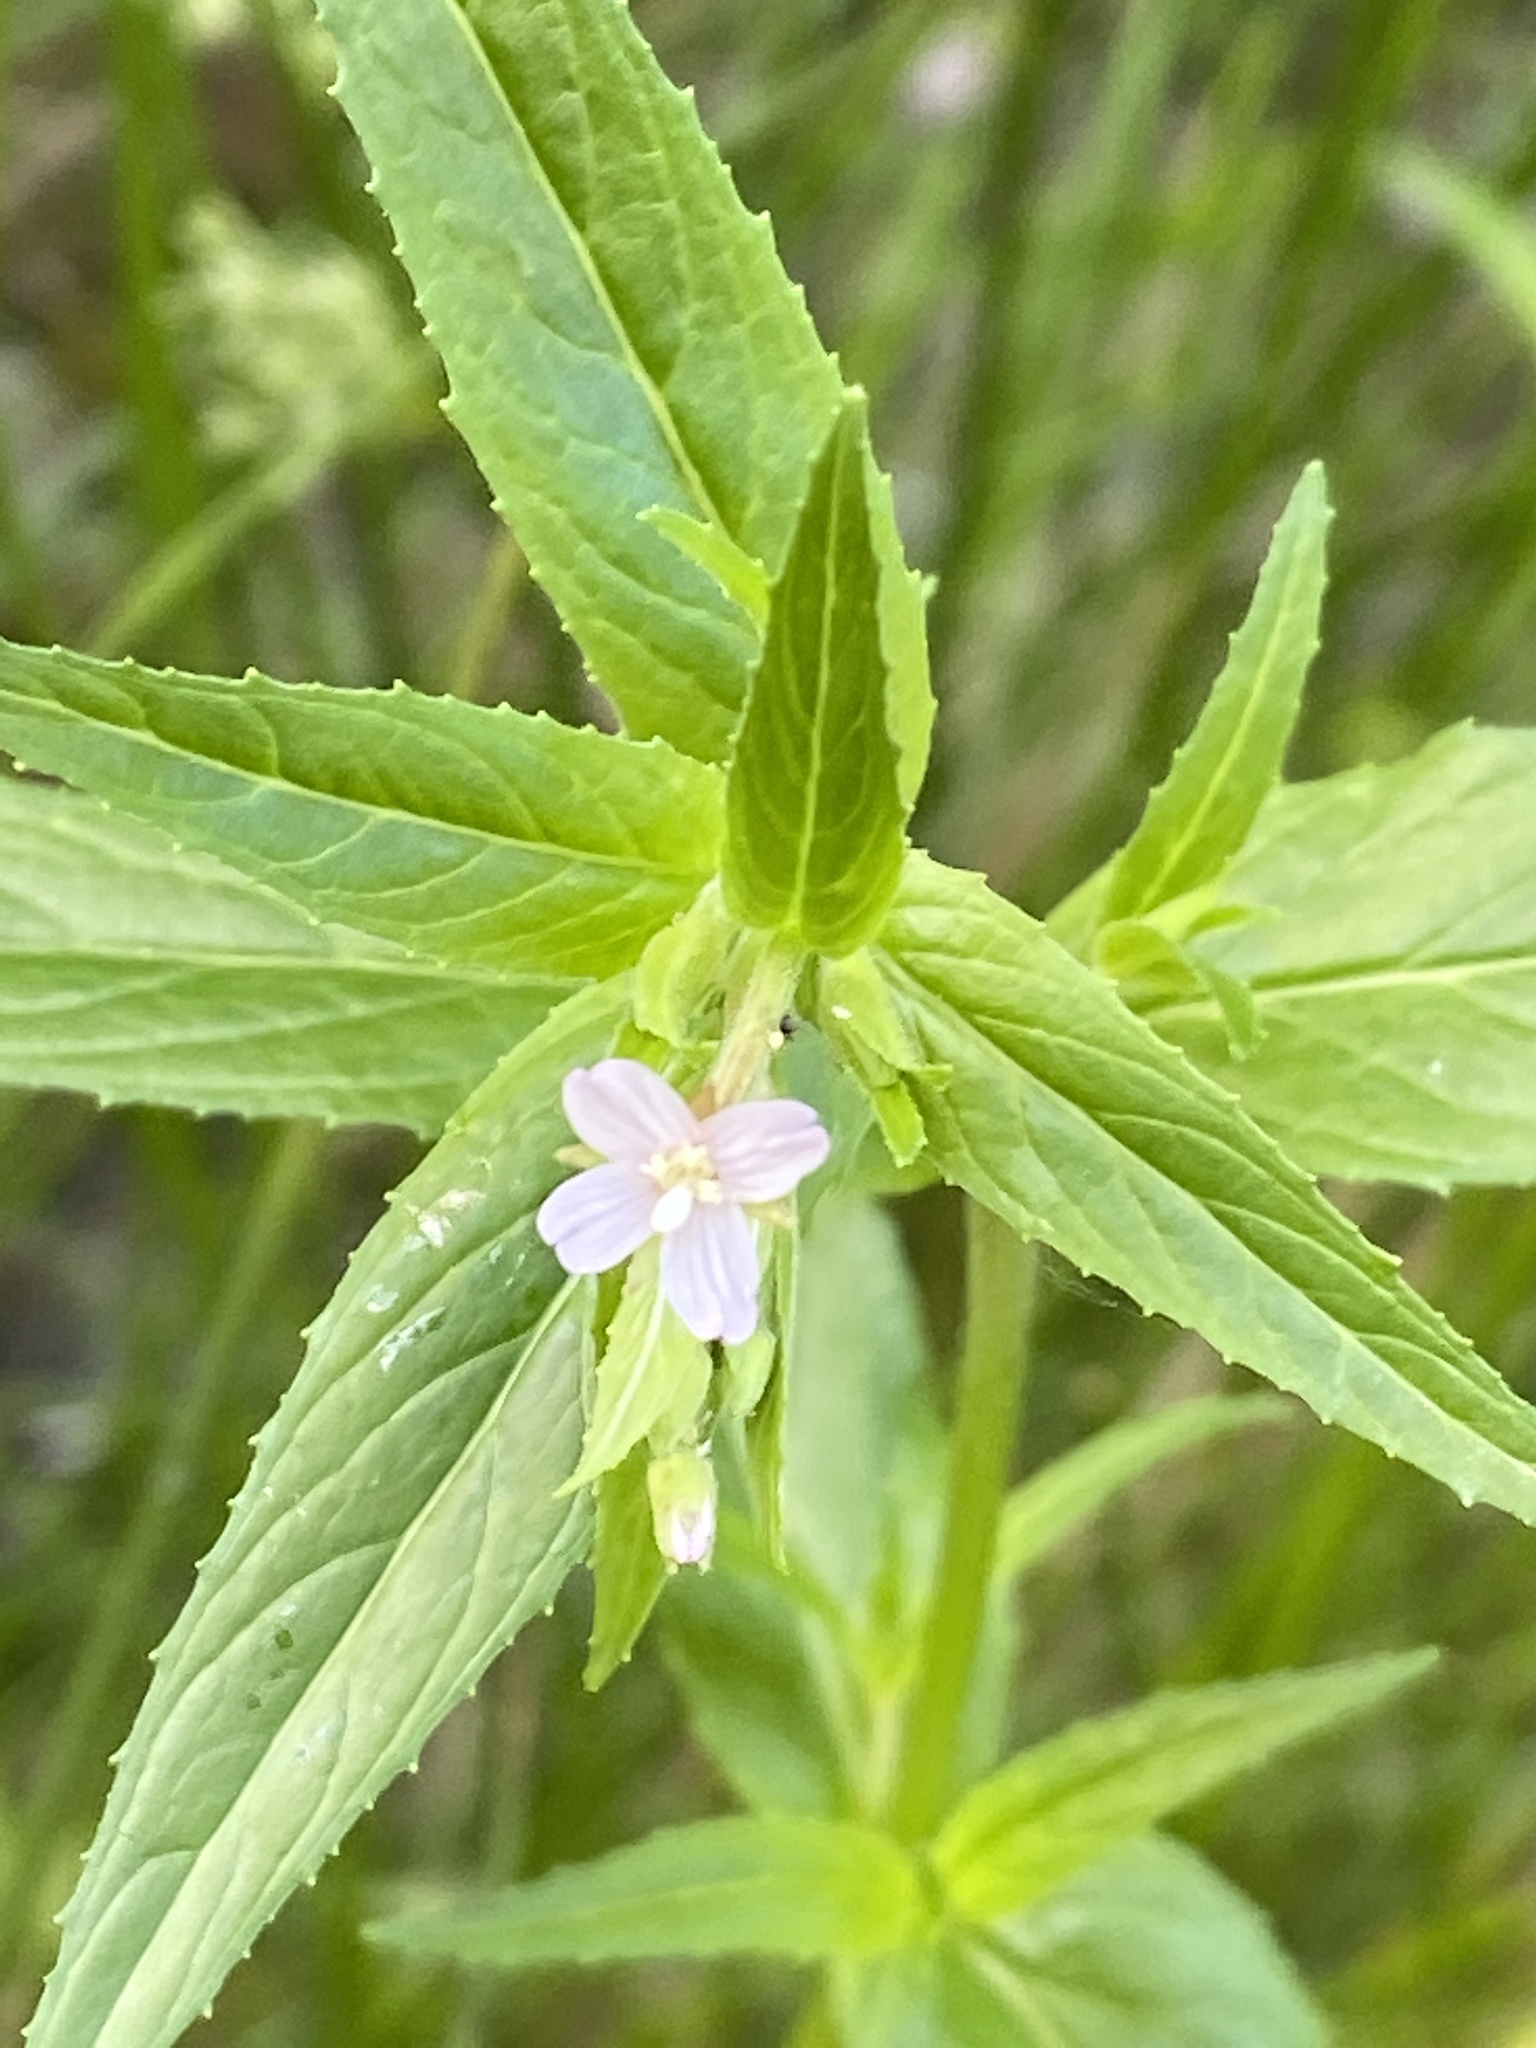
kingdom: Plantae
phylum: Tracheophyta
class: Magnoliopsida
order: Myrtales
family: Onagraceae
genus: Epilobium
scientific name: Epilobium ciliatum
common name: American willowherb
